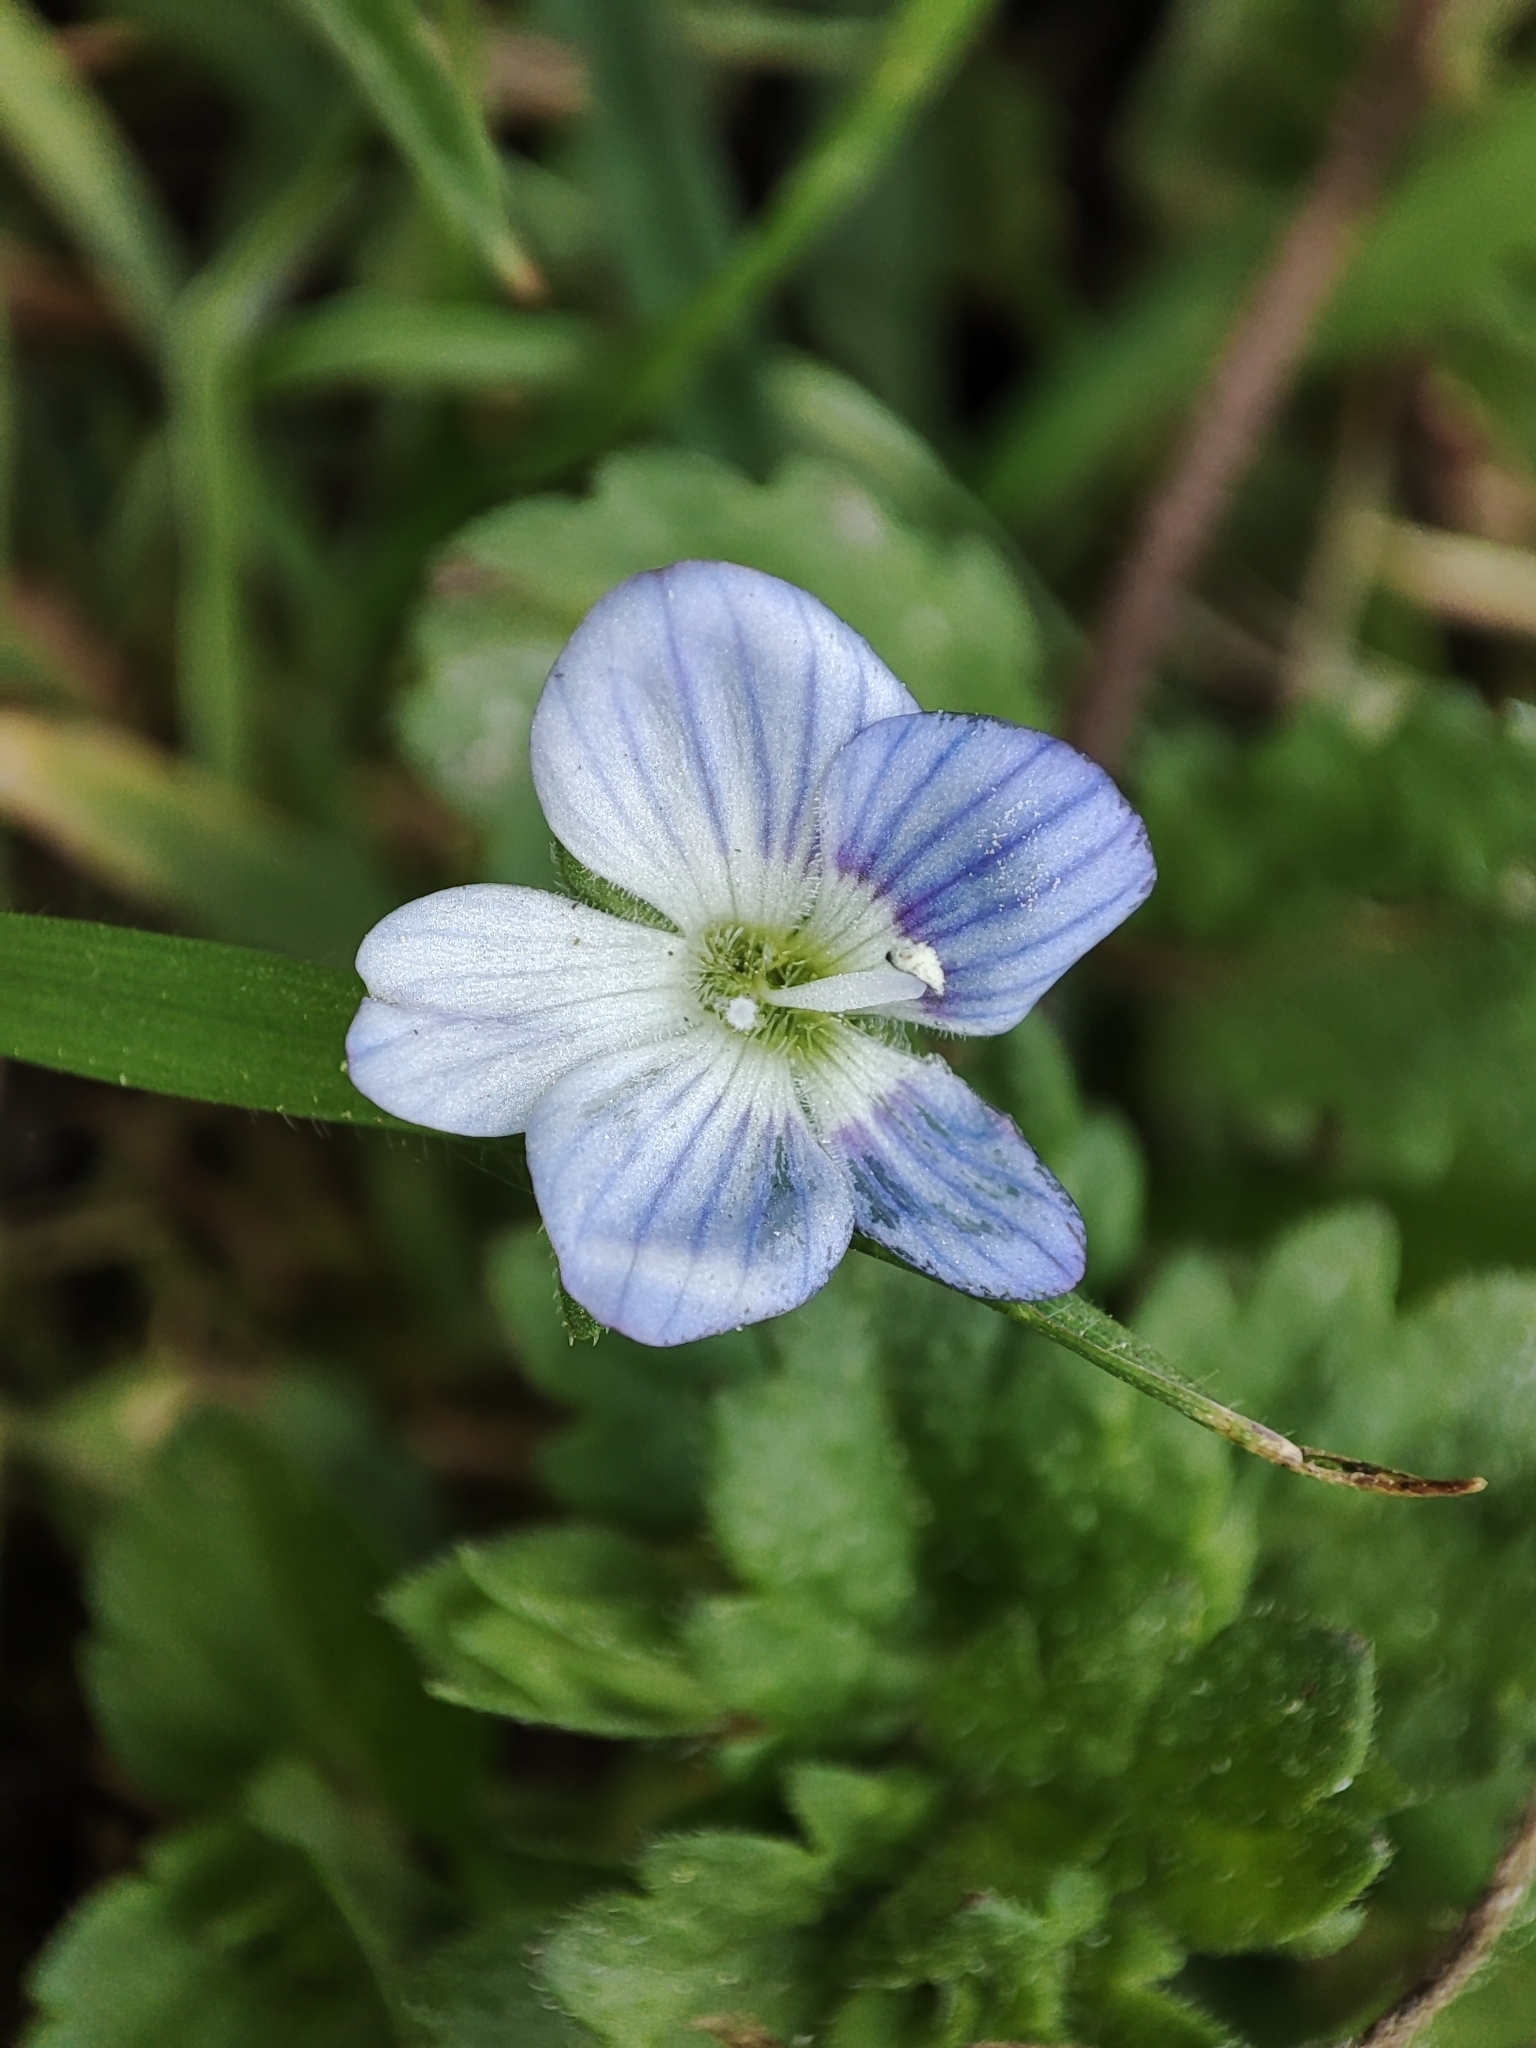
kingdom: Plantae
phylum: Tracheophyta
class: Magnoliopsida
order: Lamiales
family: Plantaginaceae
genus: Veronica
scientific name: Veronica persica
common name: Common field-speedwell
